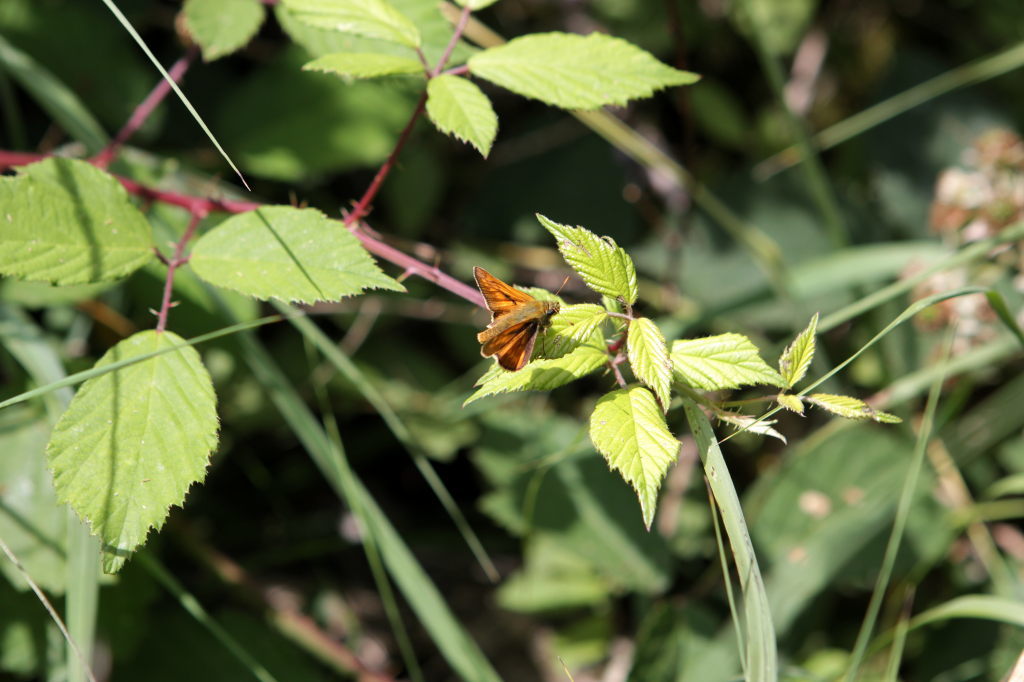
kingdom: Animalia
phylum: Arthropoda
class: Insecta
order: Lepidoptera
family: Hesperiidae
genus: Ochlodes
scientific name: Ochlodes venata
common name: Large skipper
